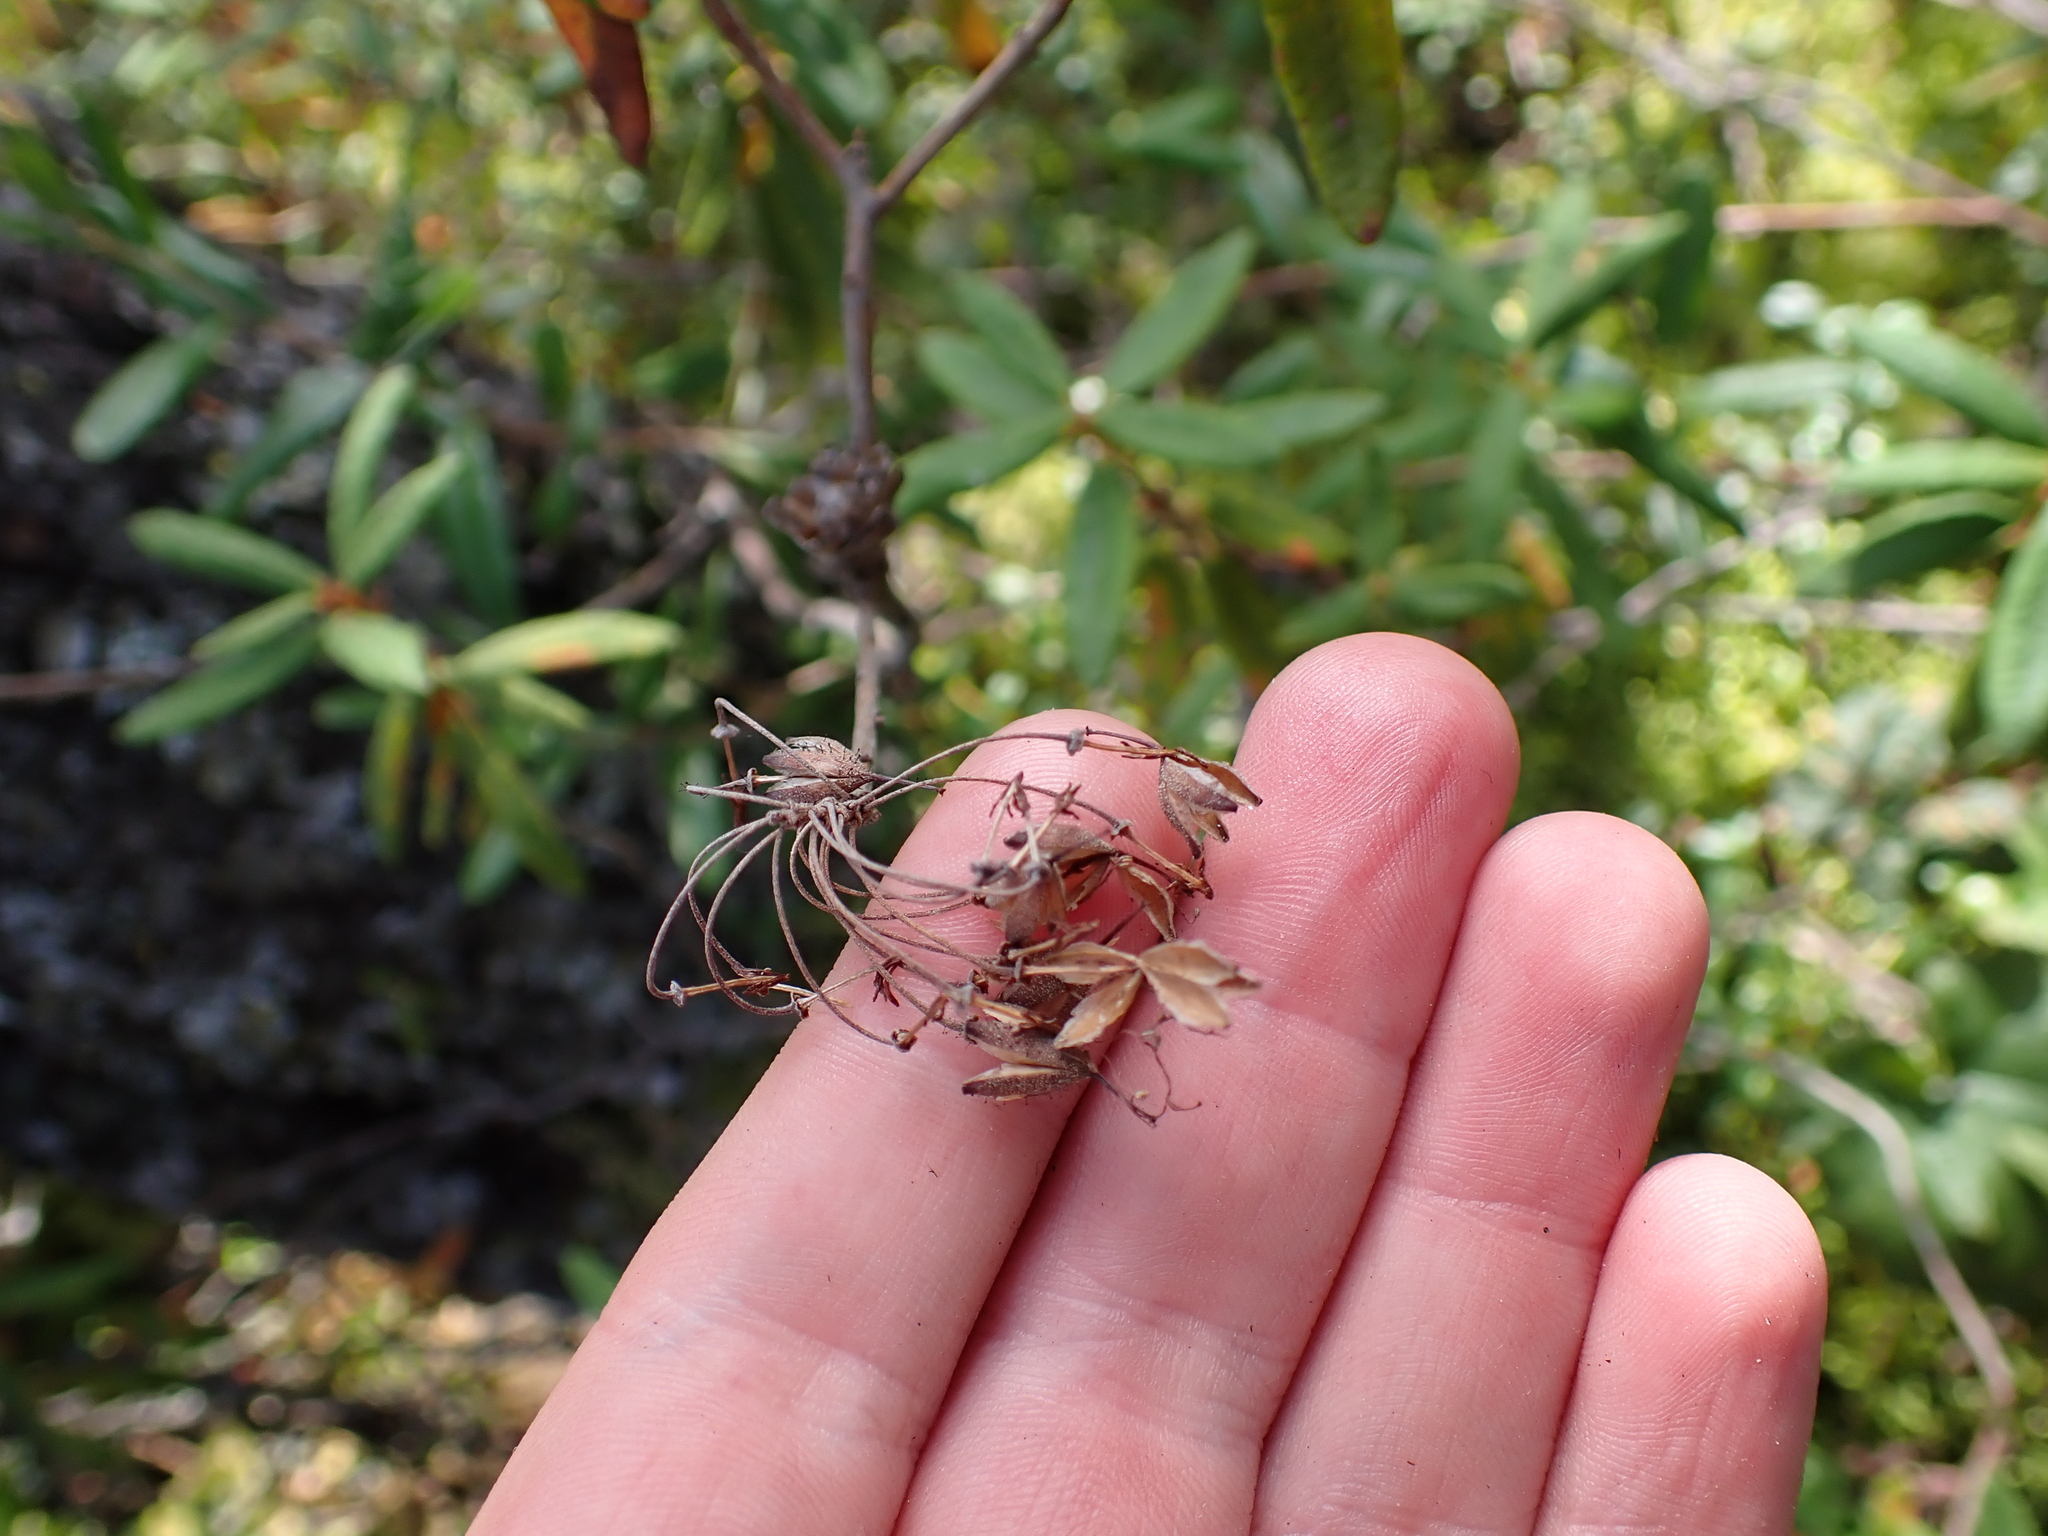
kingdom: Plantae
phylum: Tracheophyta
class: Magnoliopsida
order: Ericales
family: Ericaceae
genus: Rhododendron
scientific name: Rhododendron groenlandicum
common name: Bog labrador tea
